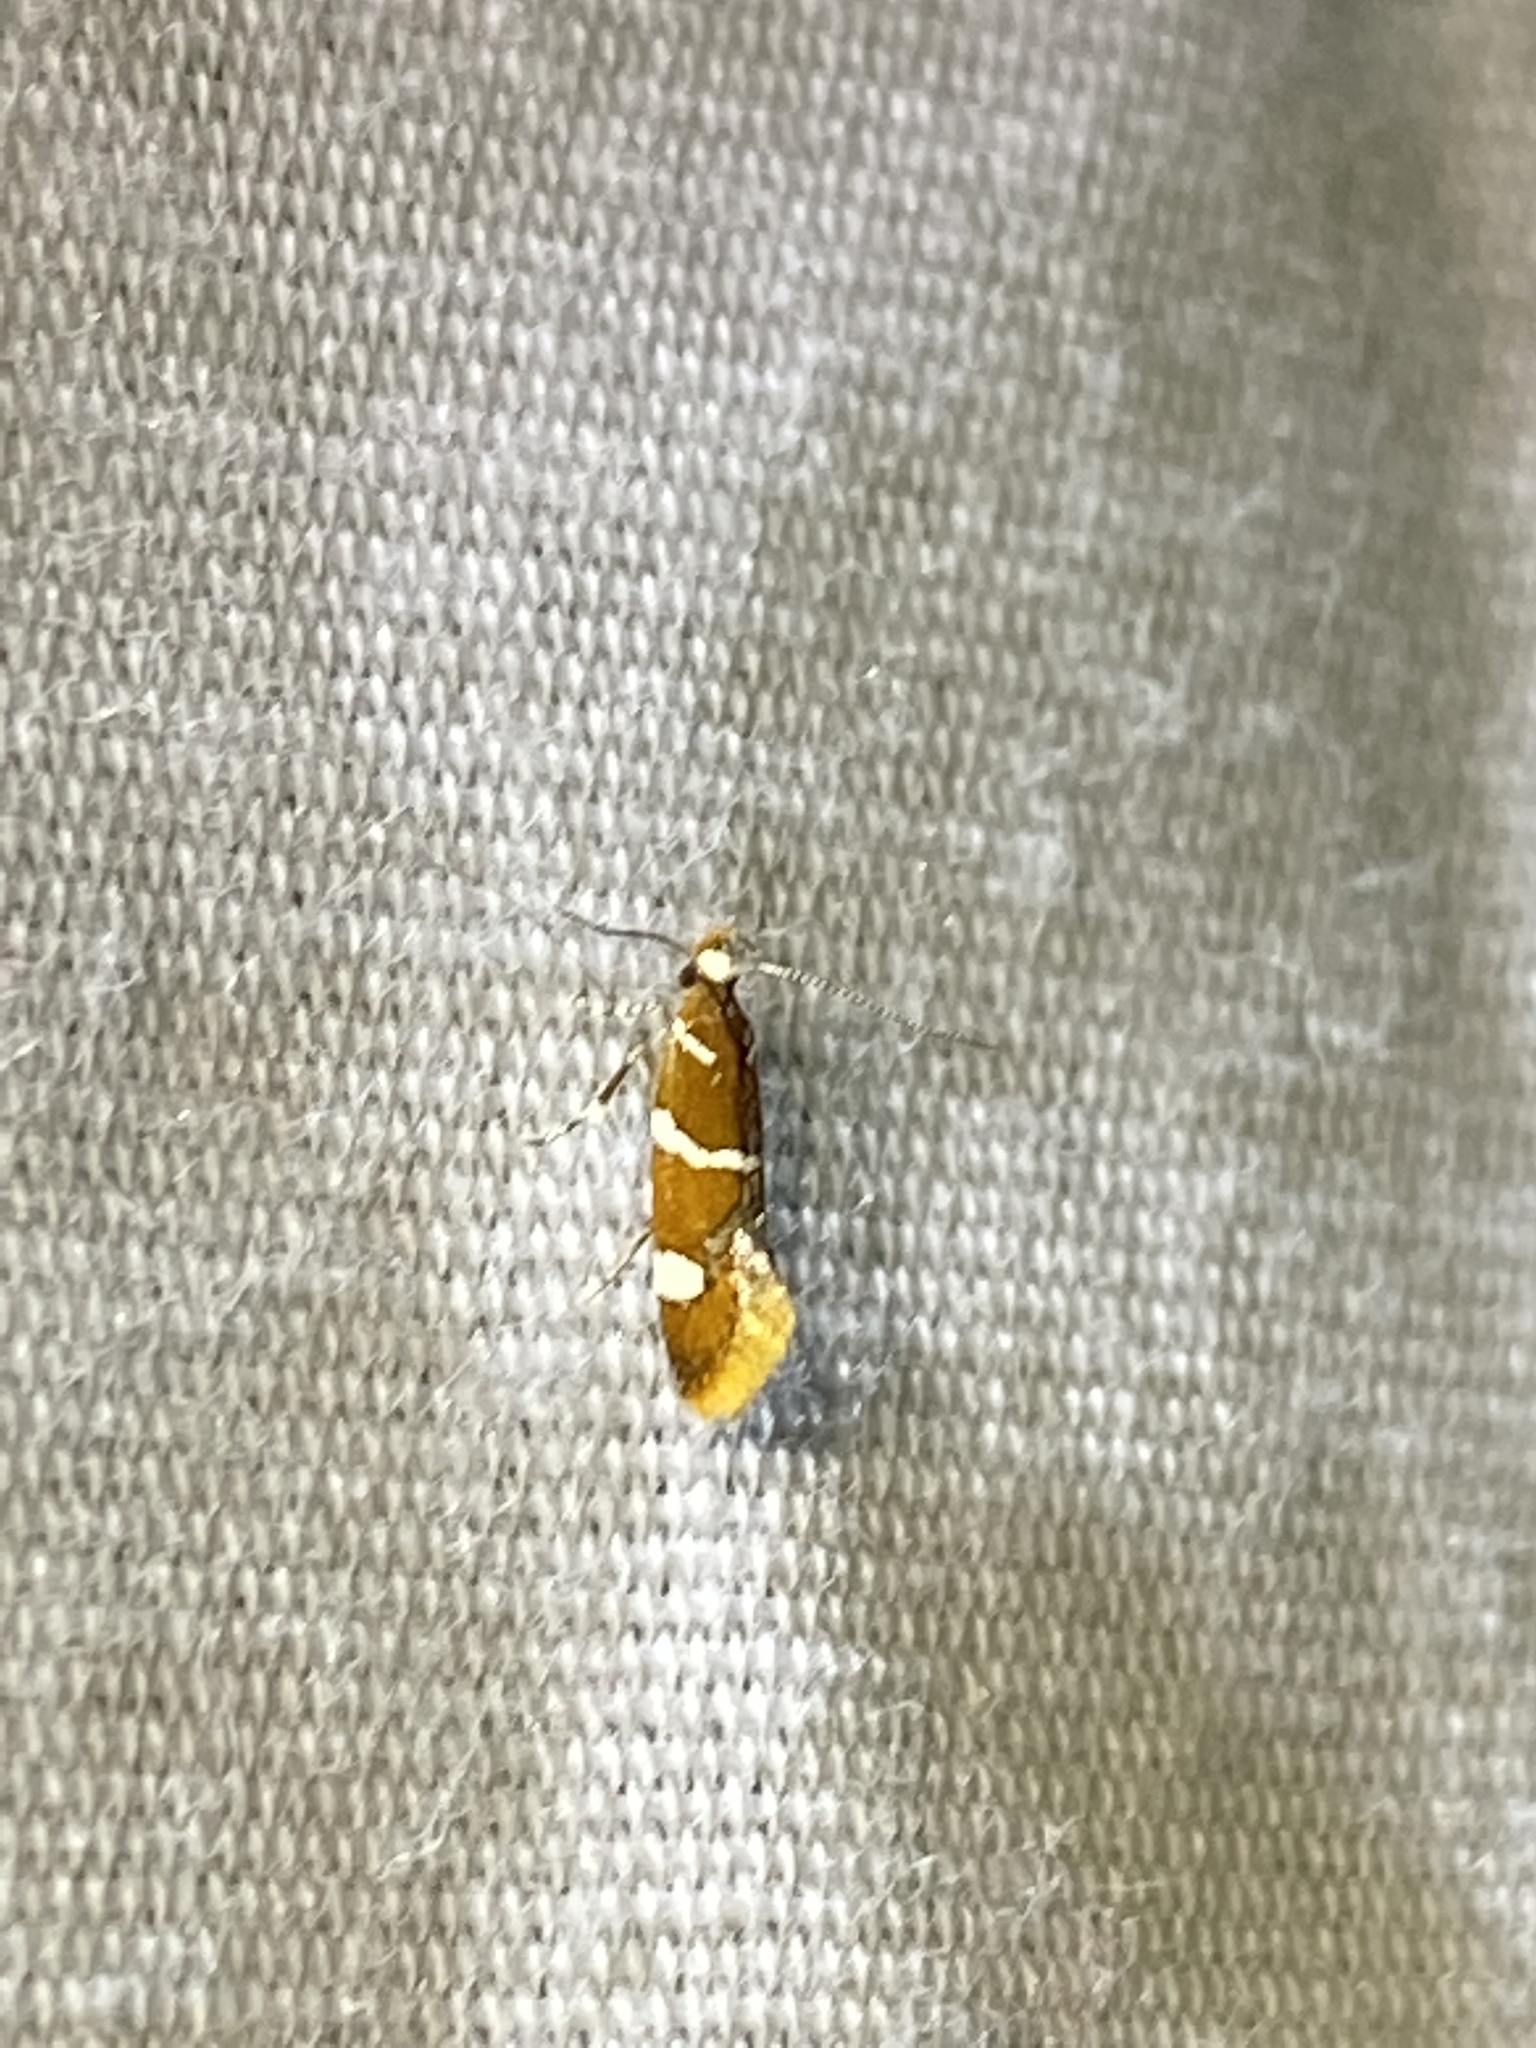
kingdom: Animalia
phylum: Arthropoda
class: Insecta
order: Lepidoptera
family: Oecophoridae
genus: Promalactis
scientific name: Promalactis suzukiella
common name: Moth
